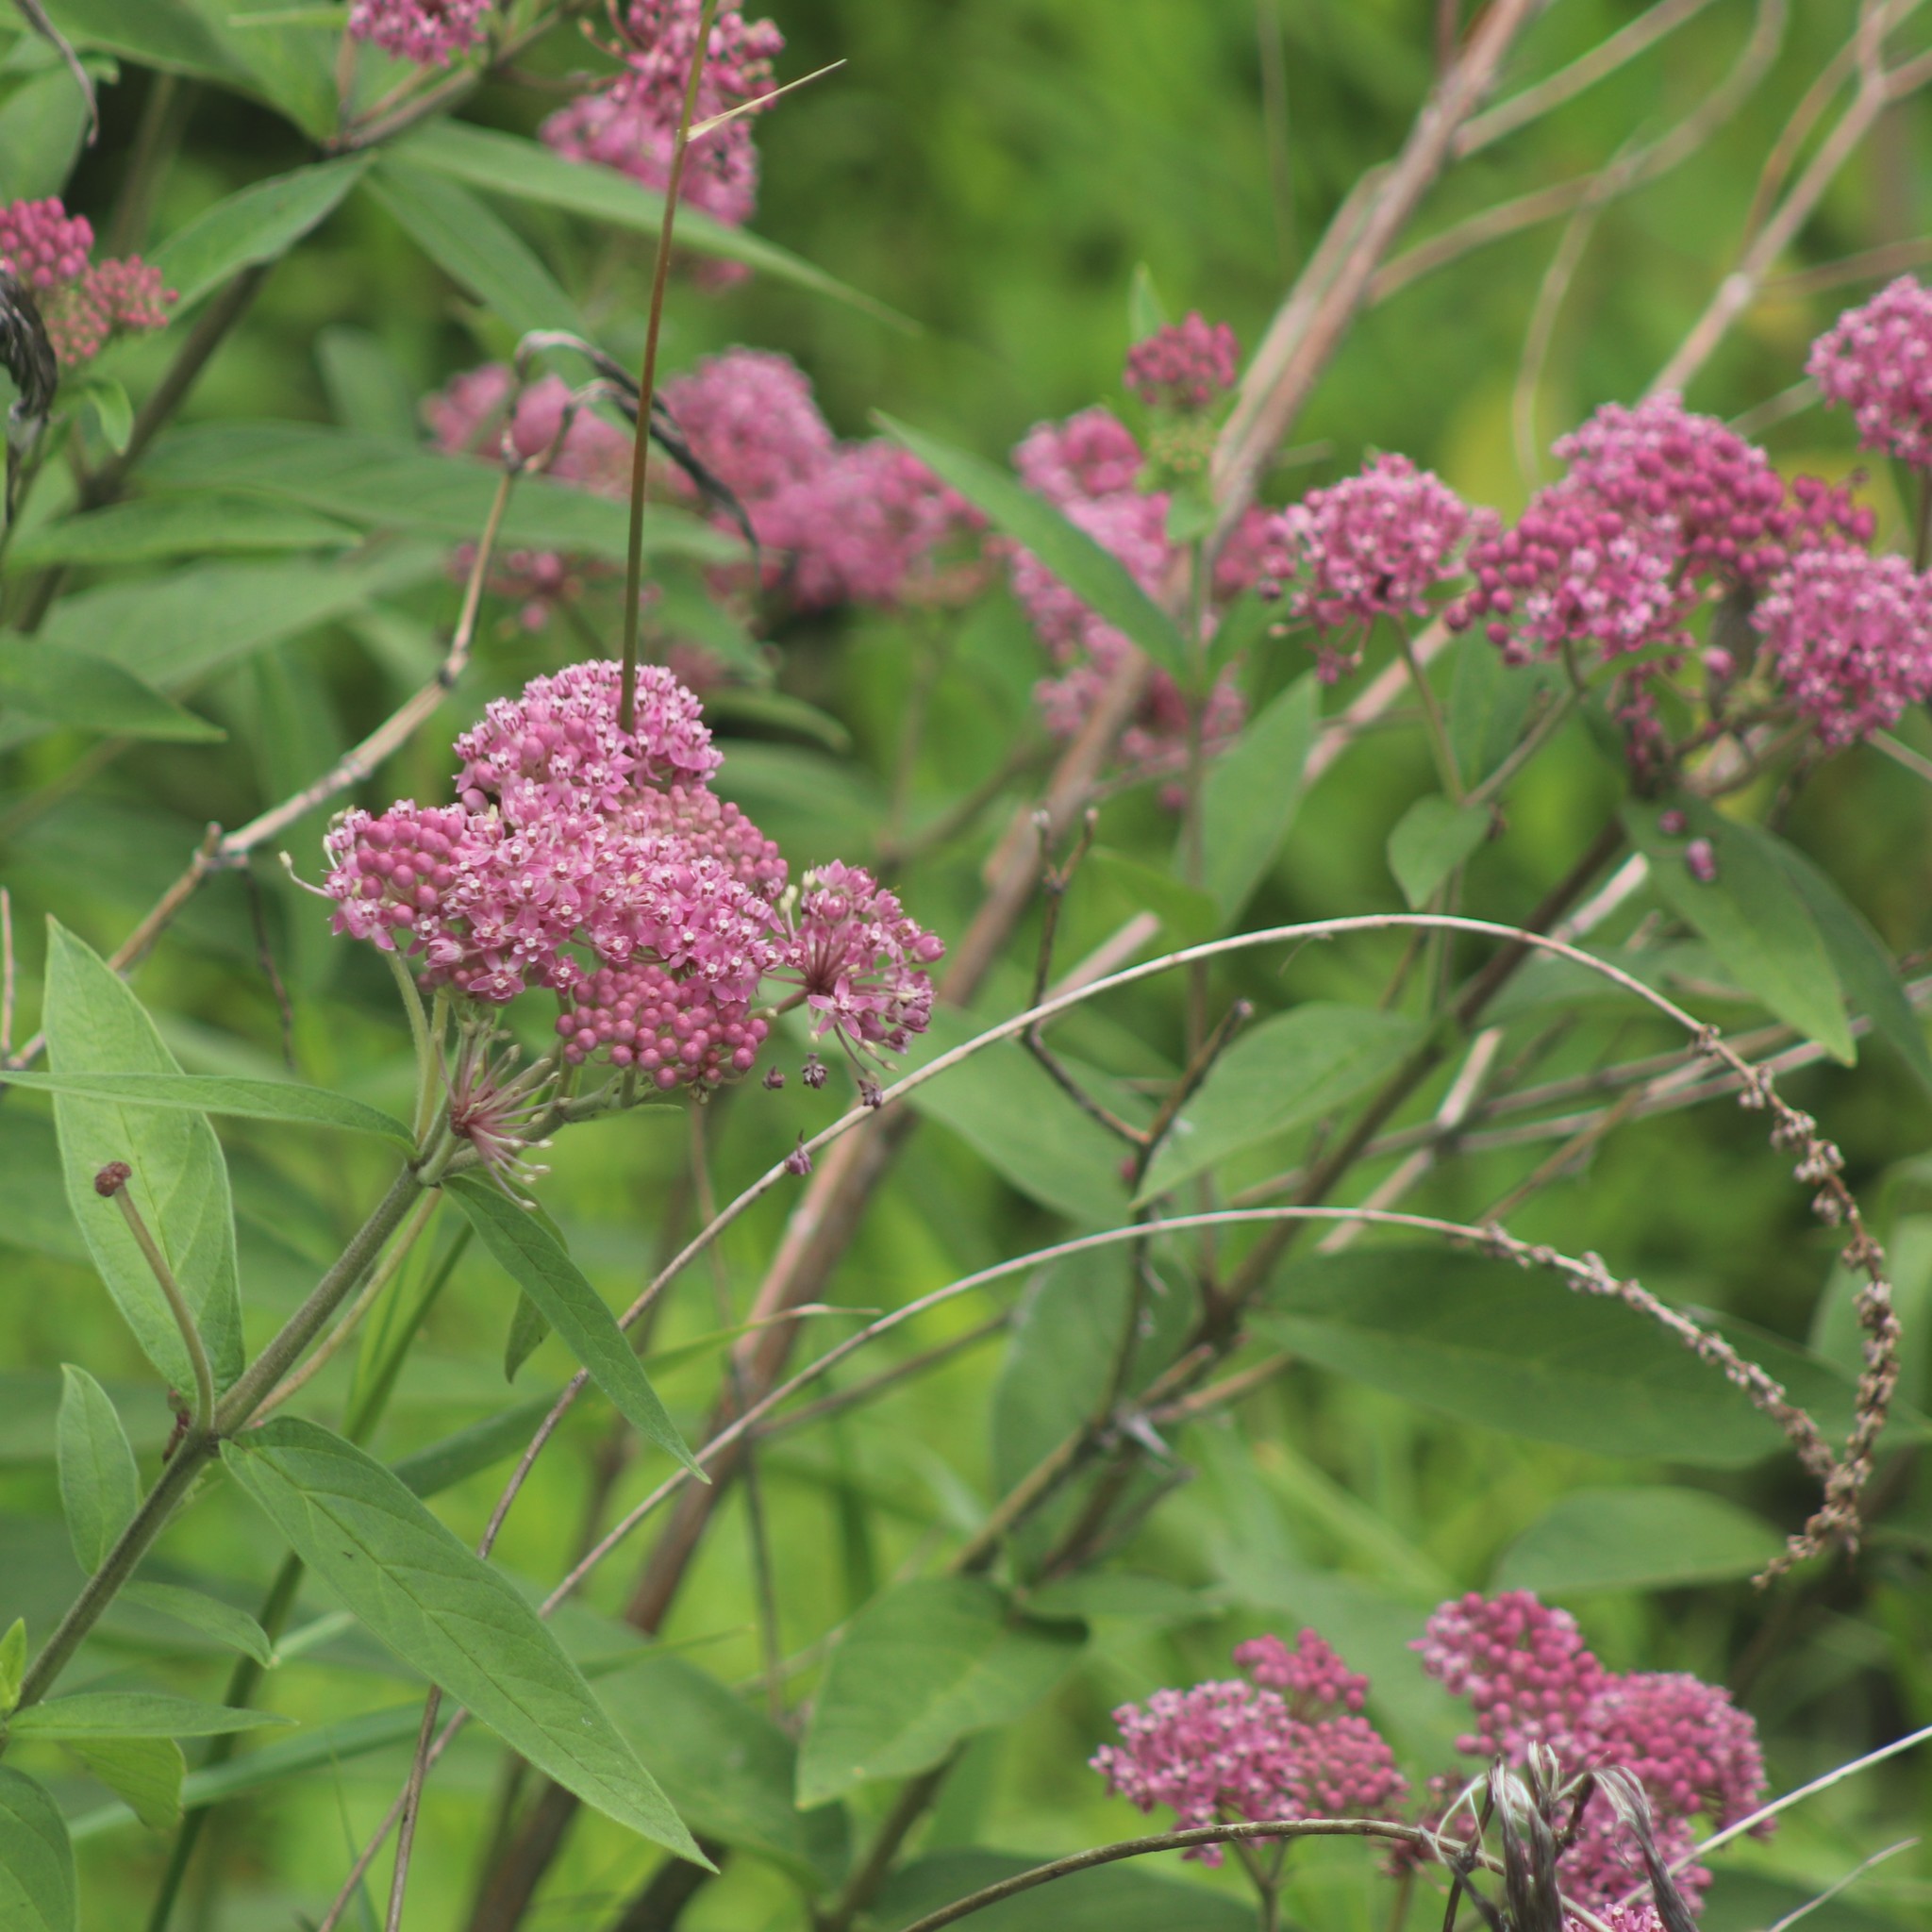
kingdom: Plantae
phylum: Tracheophyta
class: Magnoliopsida
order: Gentianales
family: Apocynaceae
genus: Asclepias
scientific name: Asclepias incarnata
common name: Swamp milkweed
